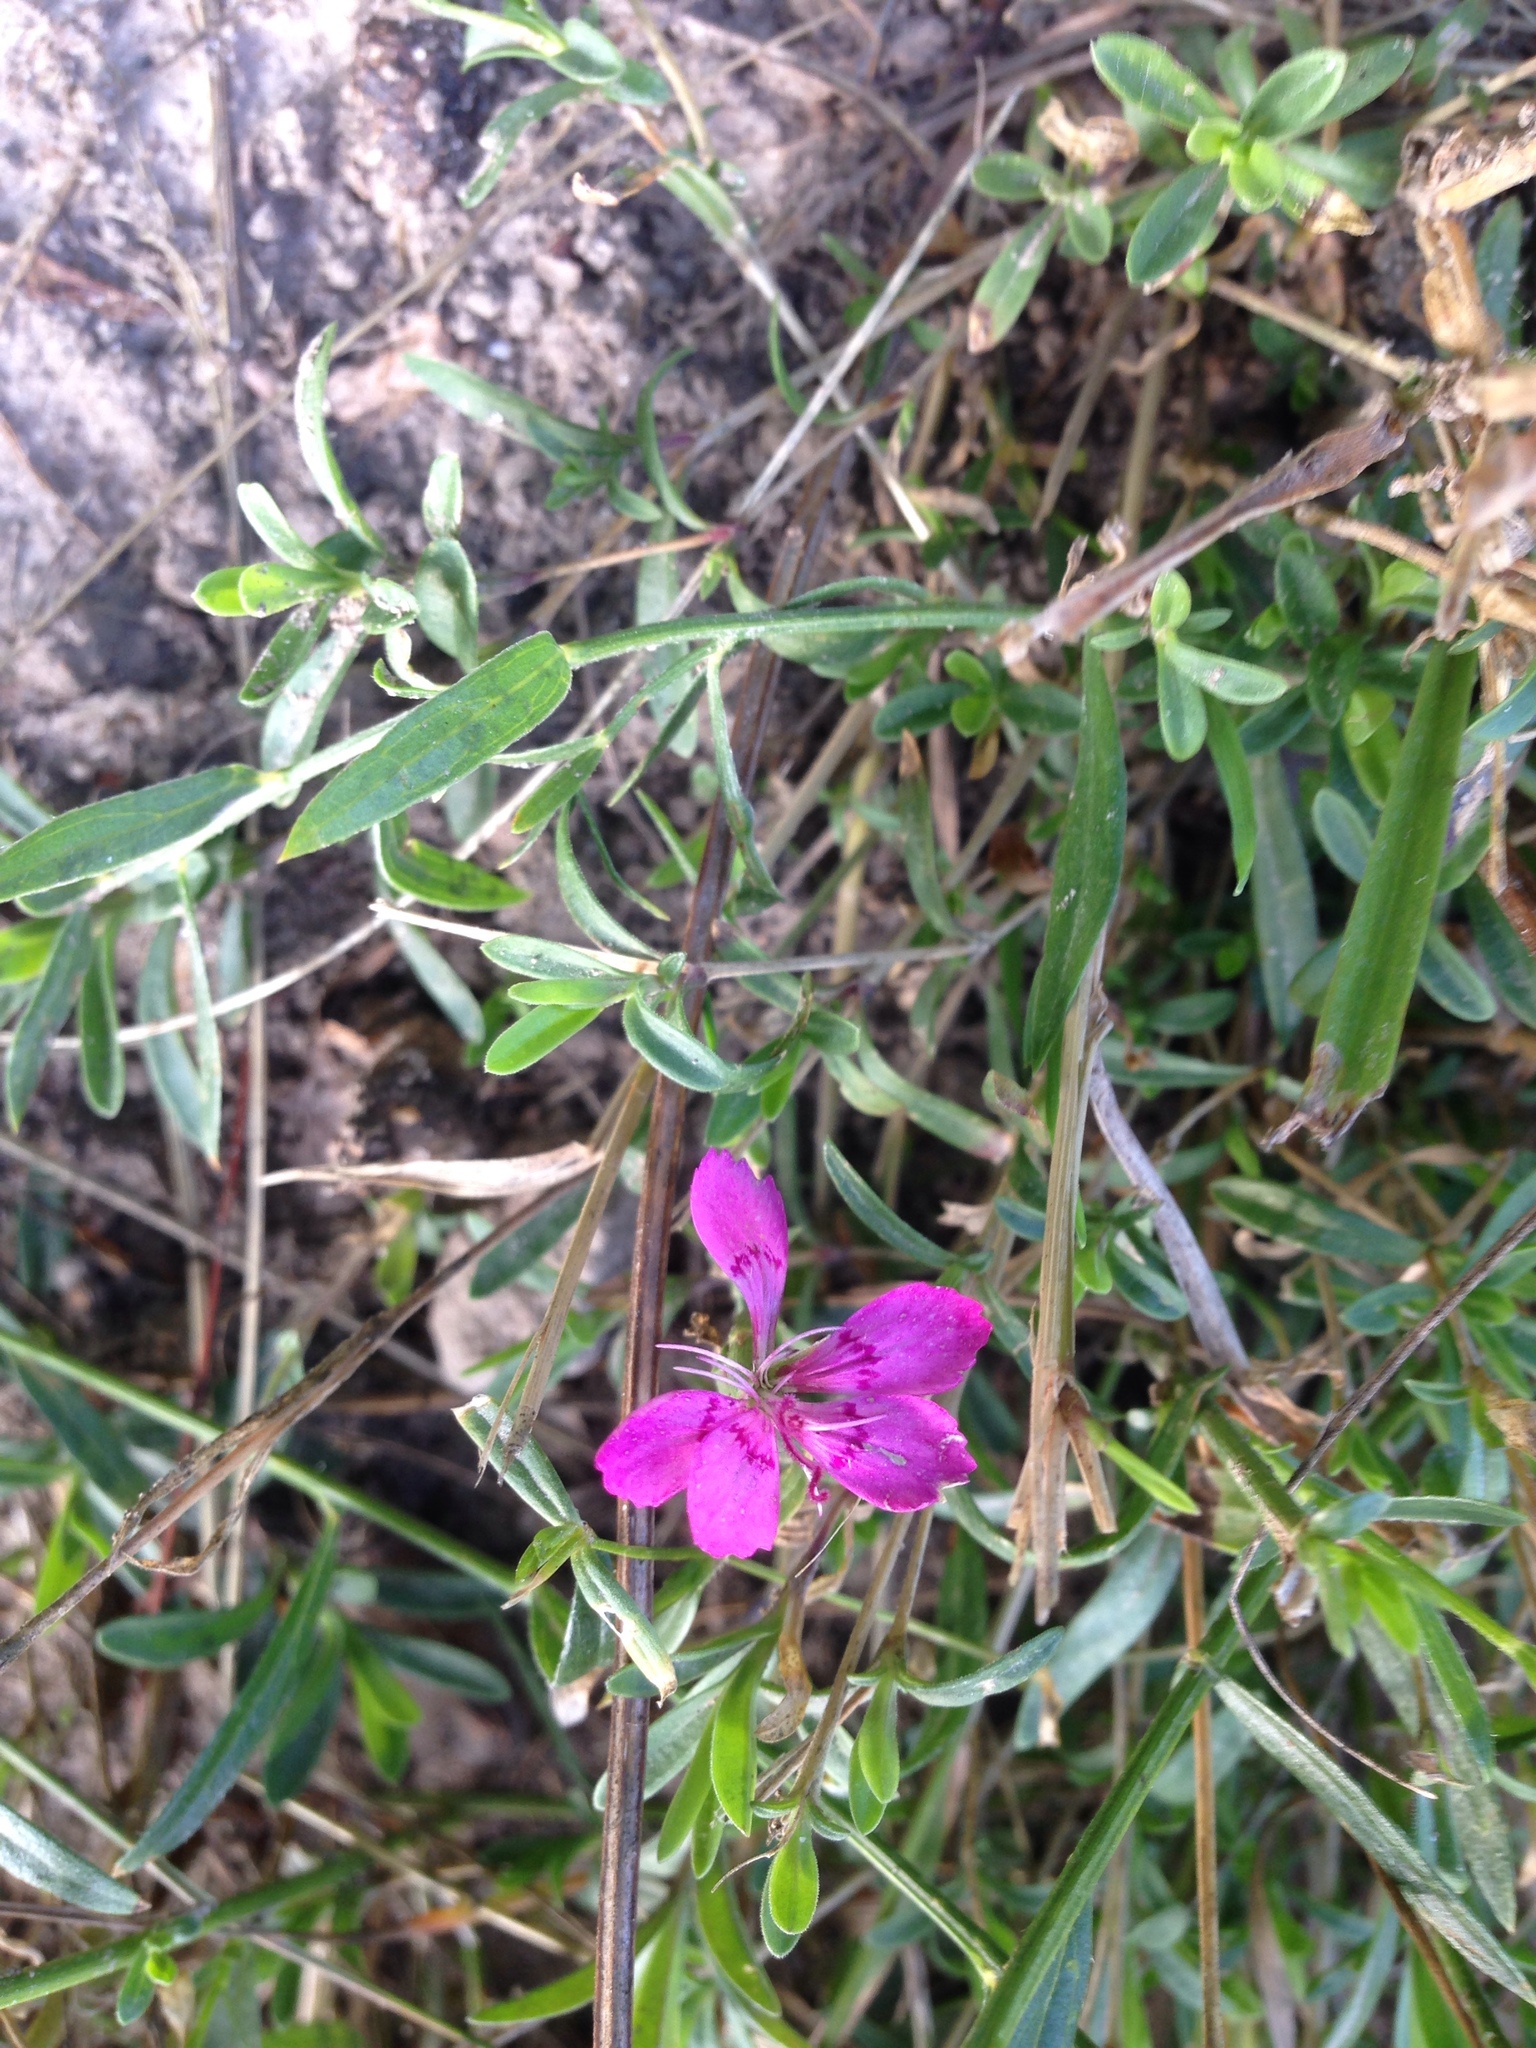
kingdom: Plantae
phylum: Tracheophyta
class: Magnoliopsida
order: Caryophyllales
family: Caryophyllaceae
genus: Dianthus
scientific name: Dianthus deltoides
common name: Maiden pink
